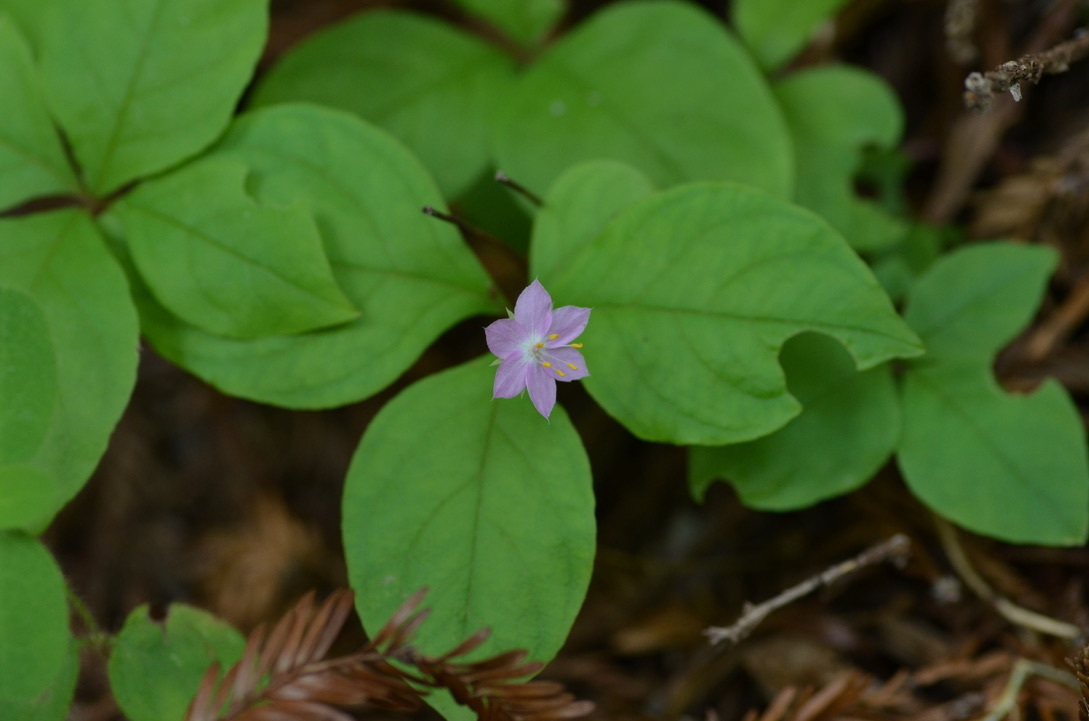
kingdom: Plantae
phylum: Tracheophyta
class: Magnoliopsida
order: Ericales
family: Primulaceae
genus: Lysimachia
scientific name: Lysimachia latifolia
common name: Pacific starflower
